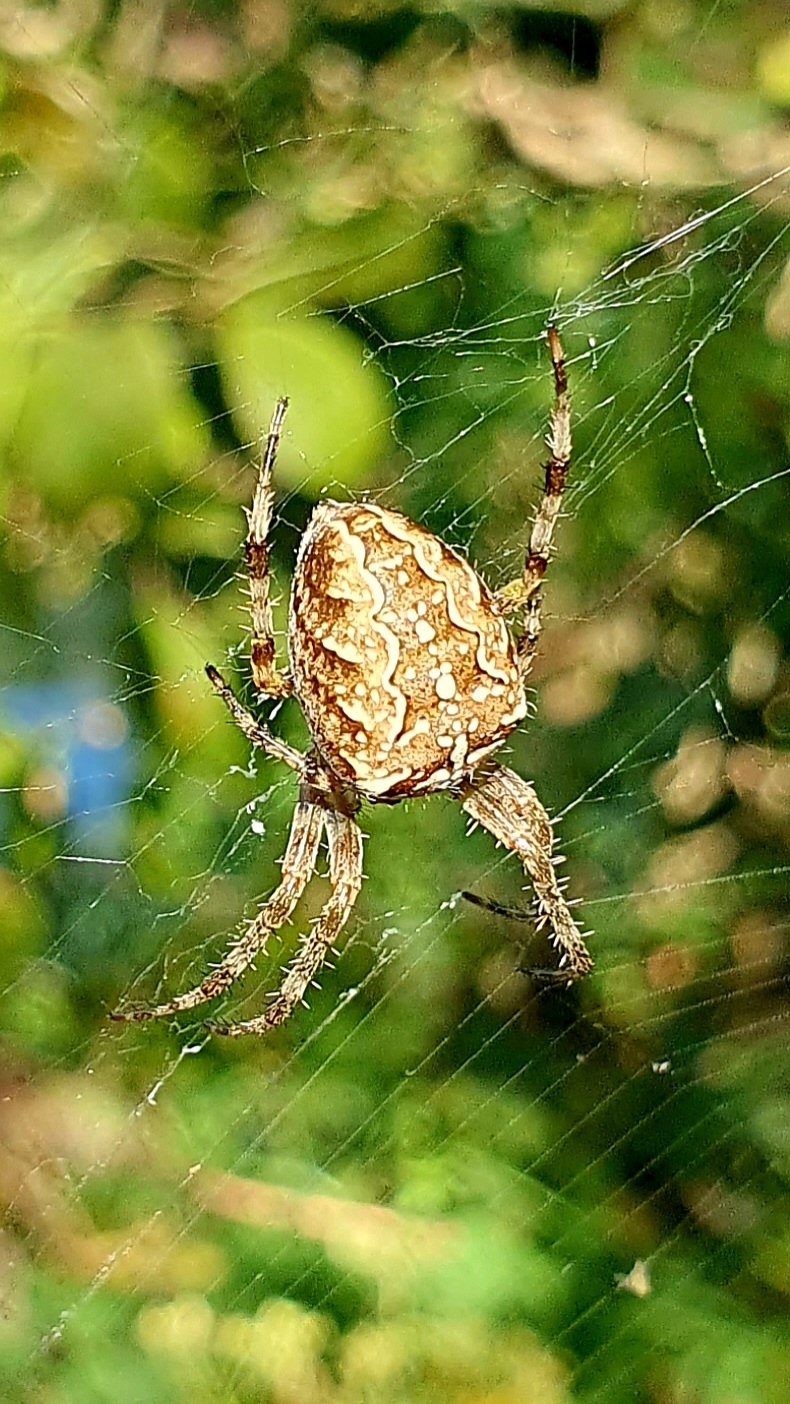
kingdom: Animalia
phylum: Arthropoda
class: Arachnida
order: Araneae
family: Araneidae
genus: Araneus
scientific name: Araneus diadematus
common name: Cross orbweaver
